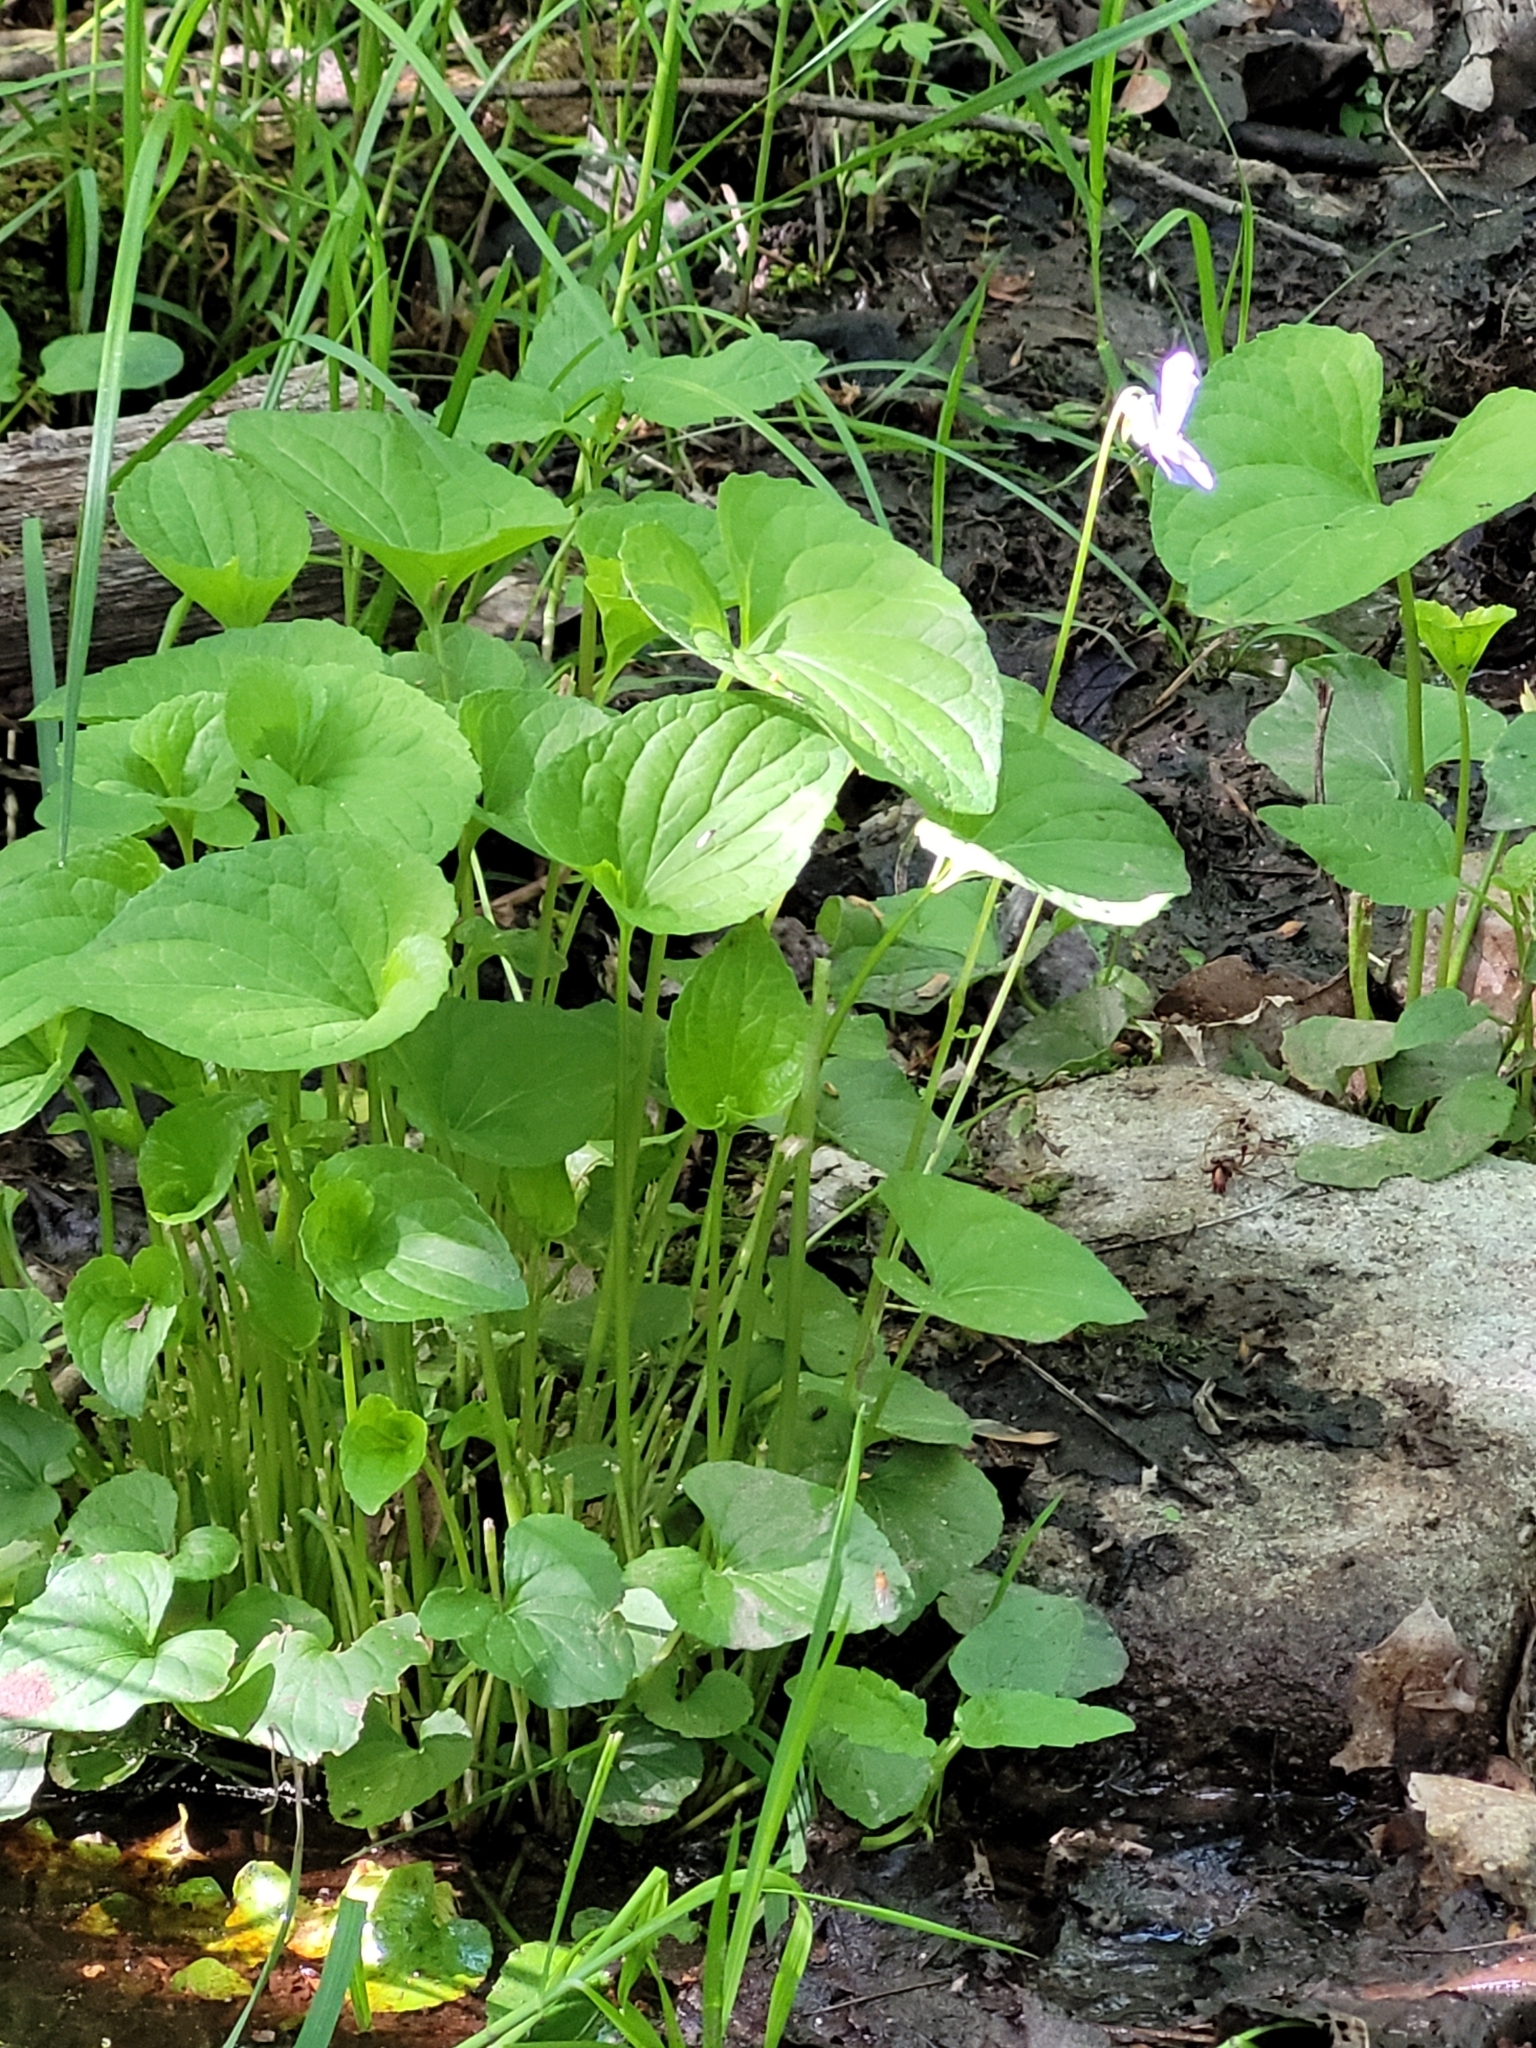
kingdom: Plantae
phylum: Tracheophyta
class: Magnoliopsida
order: Malpighiales
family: Violaceae
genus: Viola
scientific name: Viola cucullata
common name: Marsh blue violet
